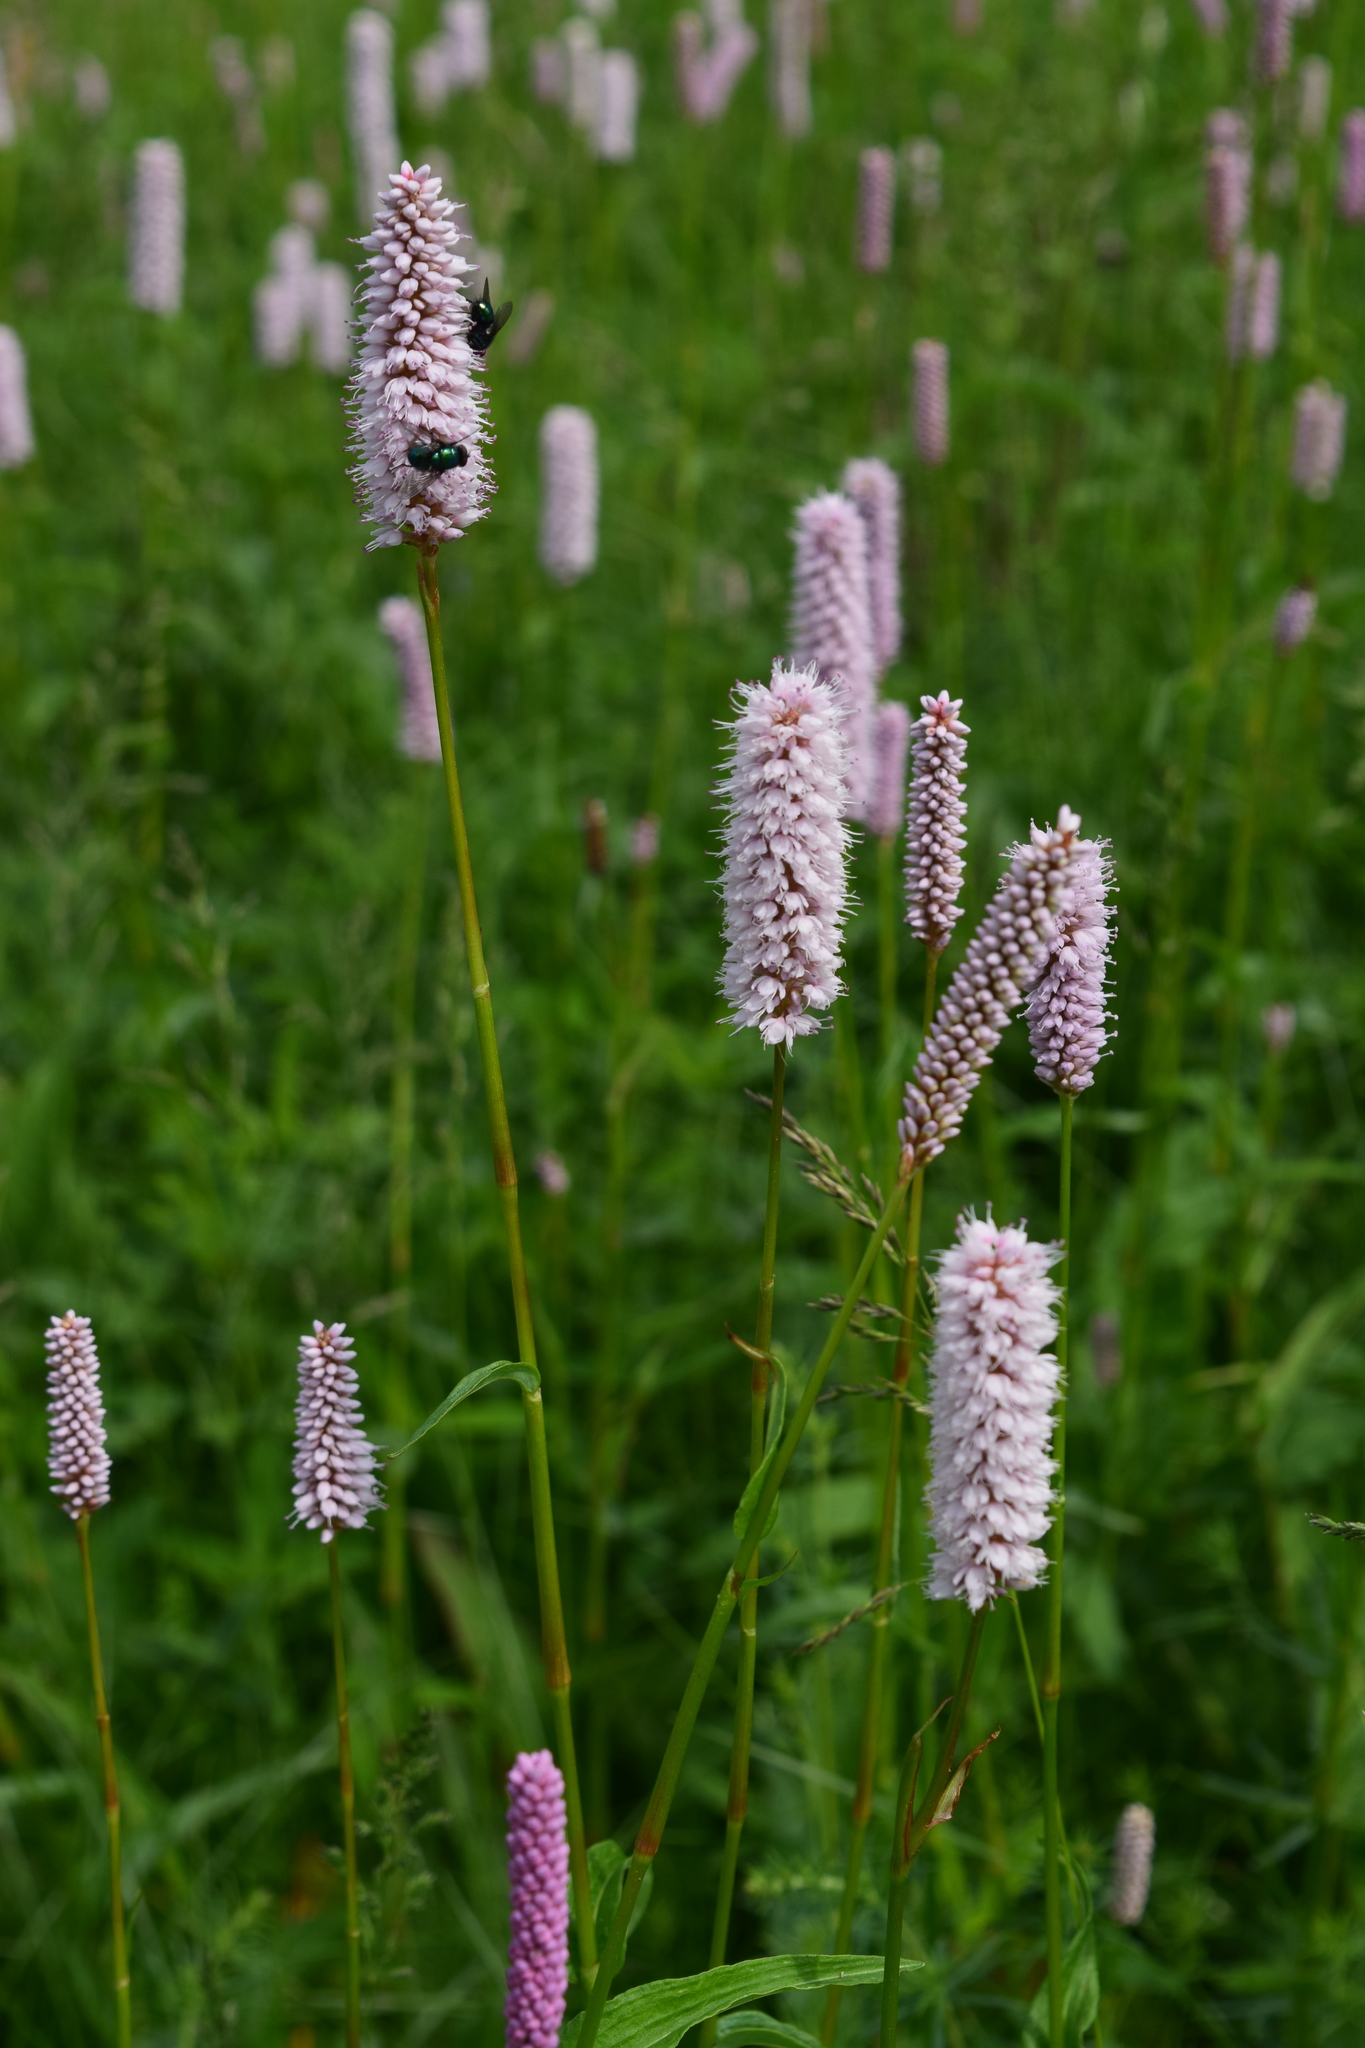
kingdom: Plantae
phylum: Tracheophyta
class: Magnoliopsida
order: Caryophyllales
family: Polygonaceae
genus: Bistorta
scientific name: Bistorta officinalis
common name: Common bistort
